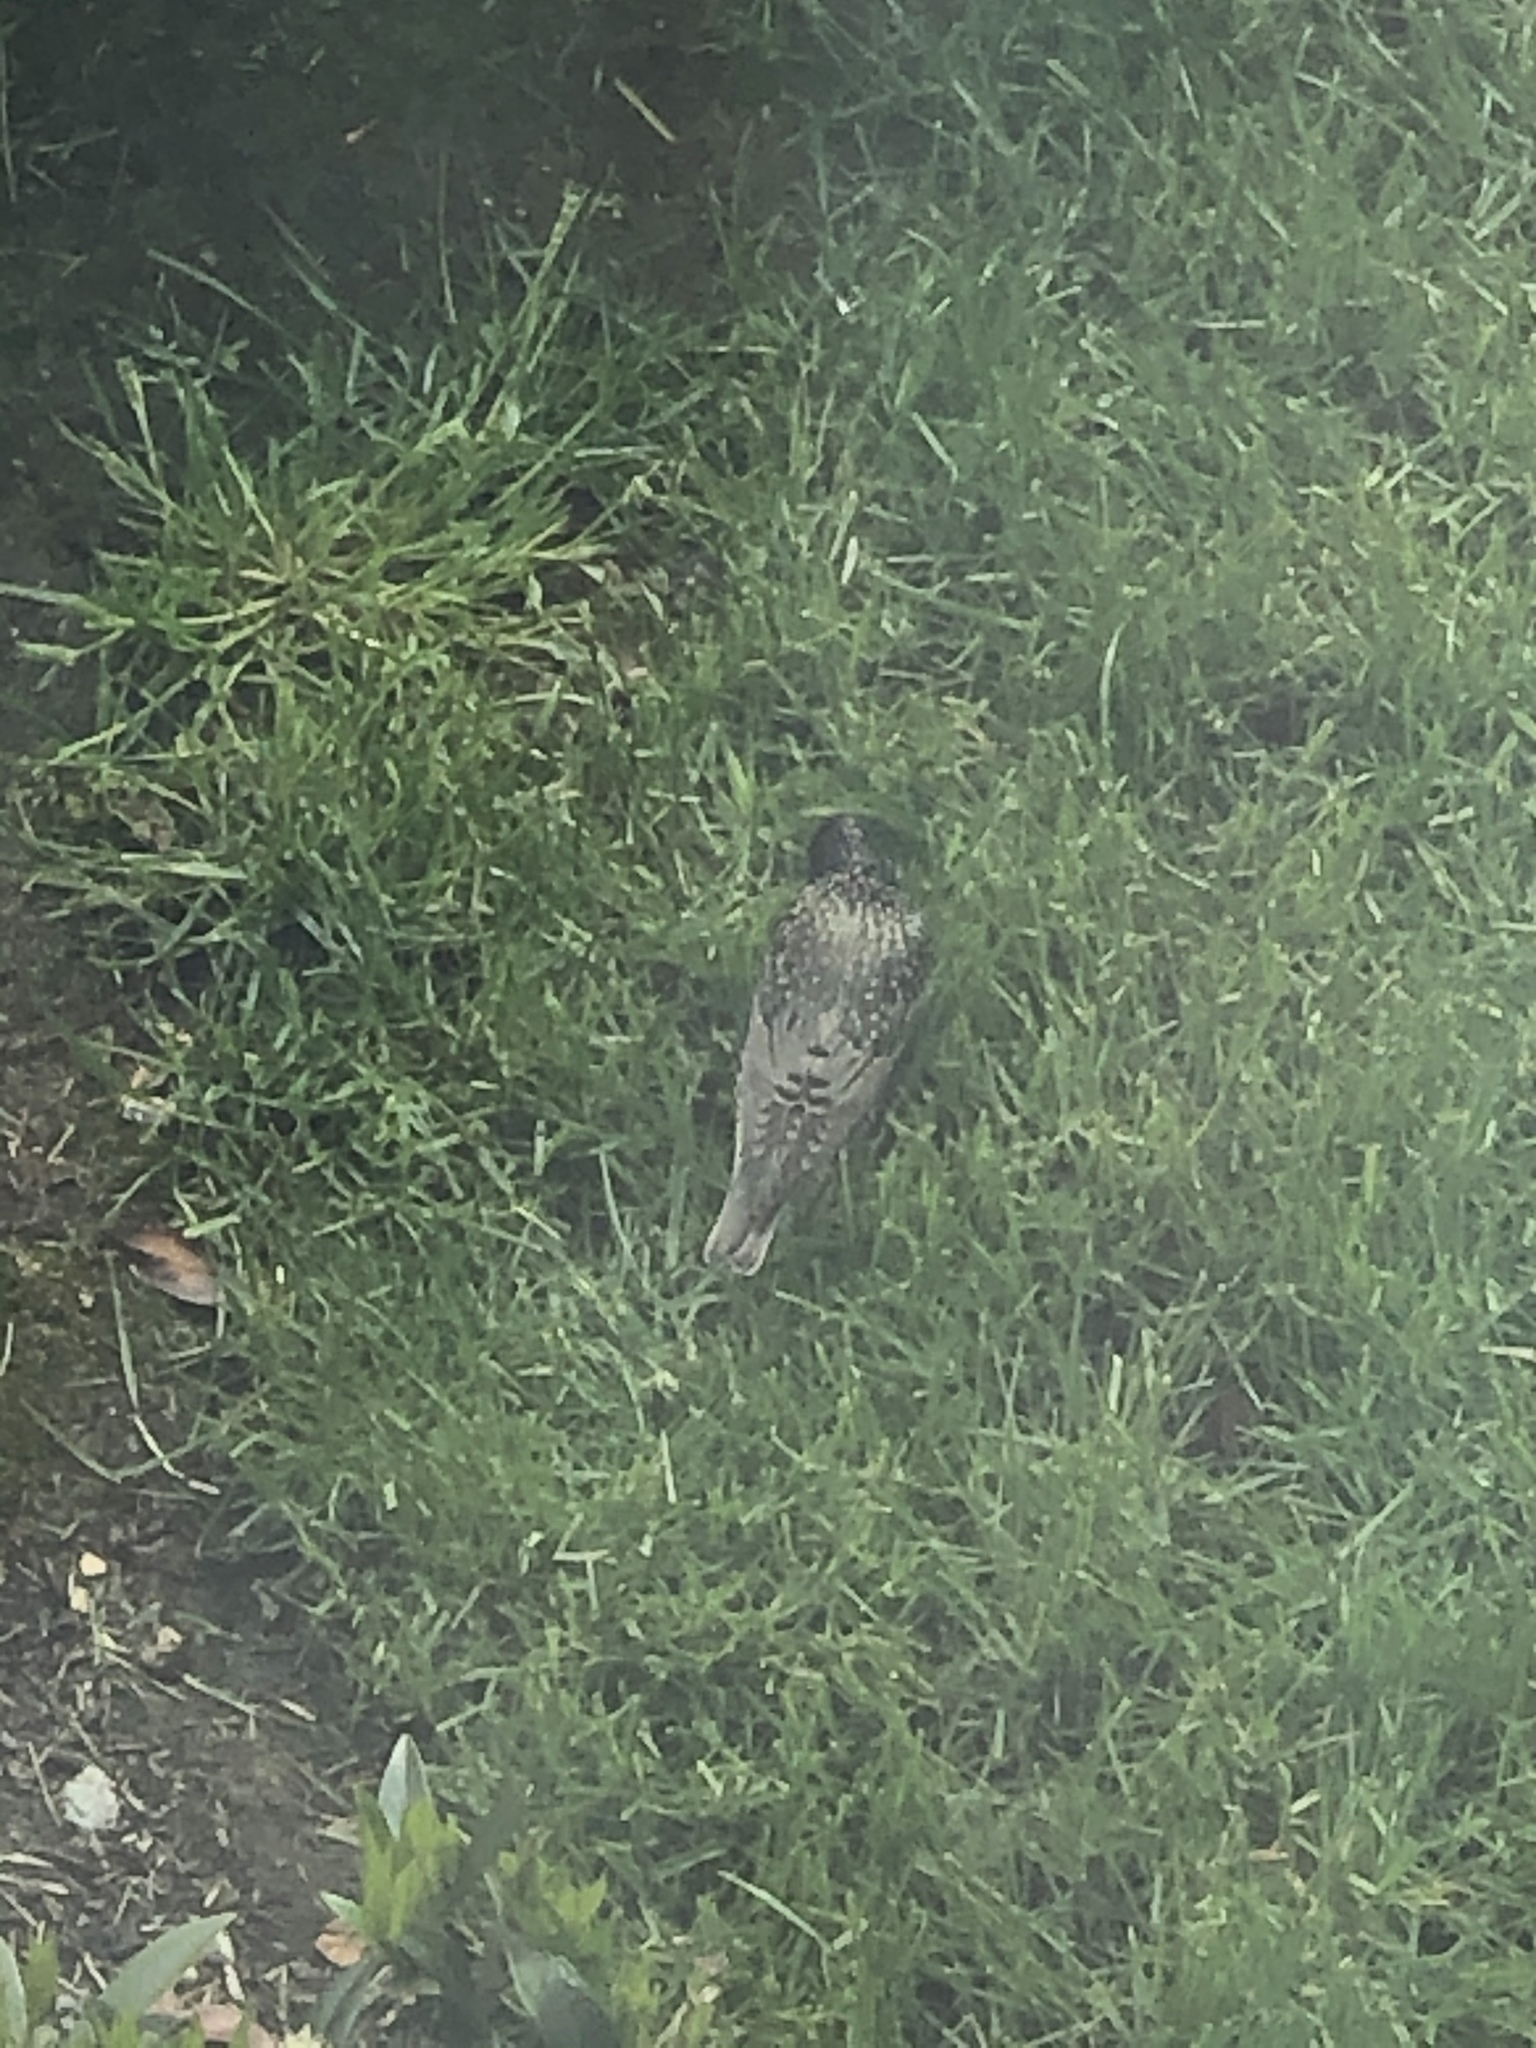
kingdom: Animalia
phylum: Chordata
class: Aves
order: Passeriformes
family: Sturnidae
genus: Sturnus
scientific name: Sturnus vulgaris
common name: Common starling
